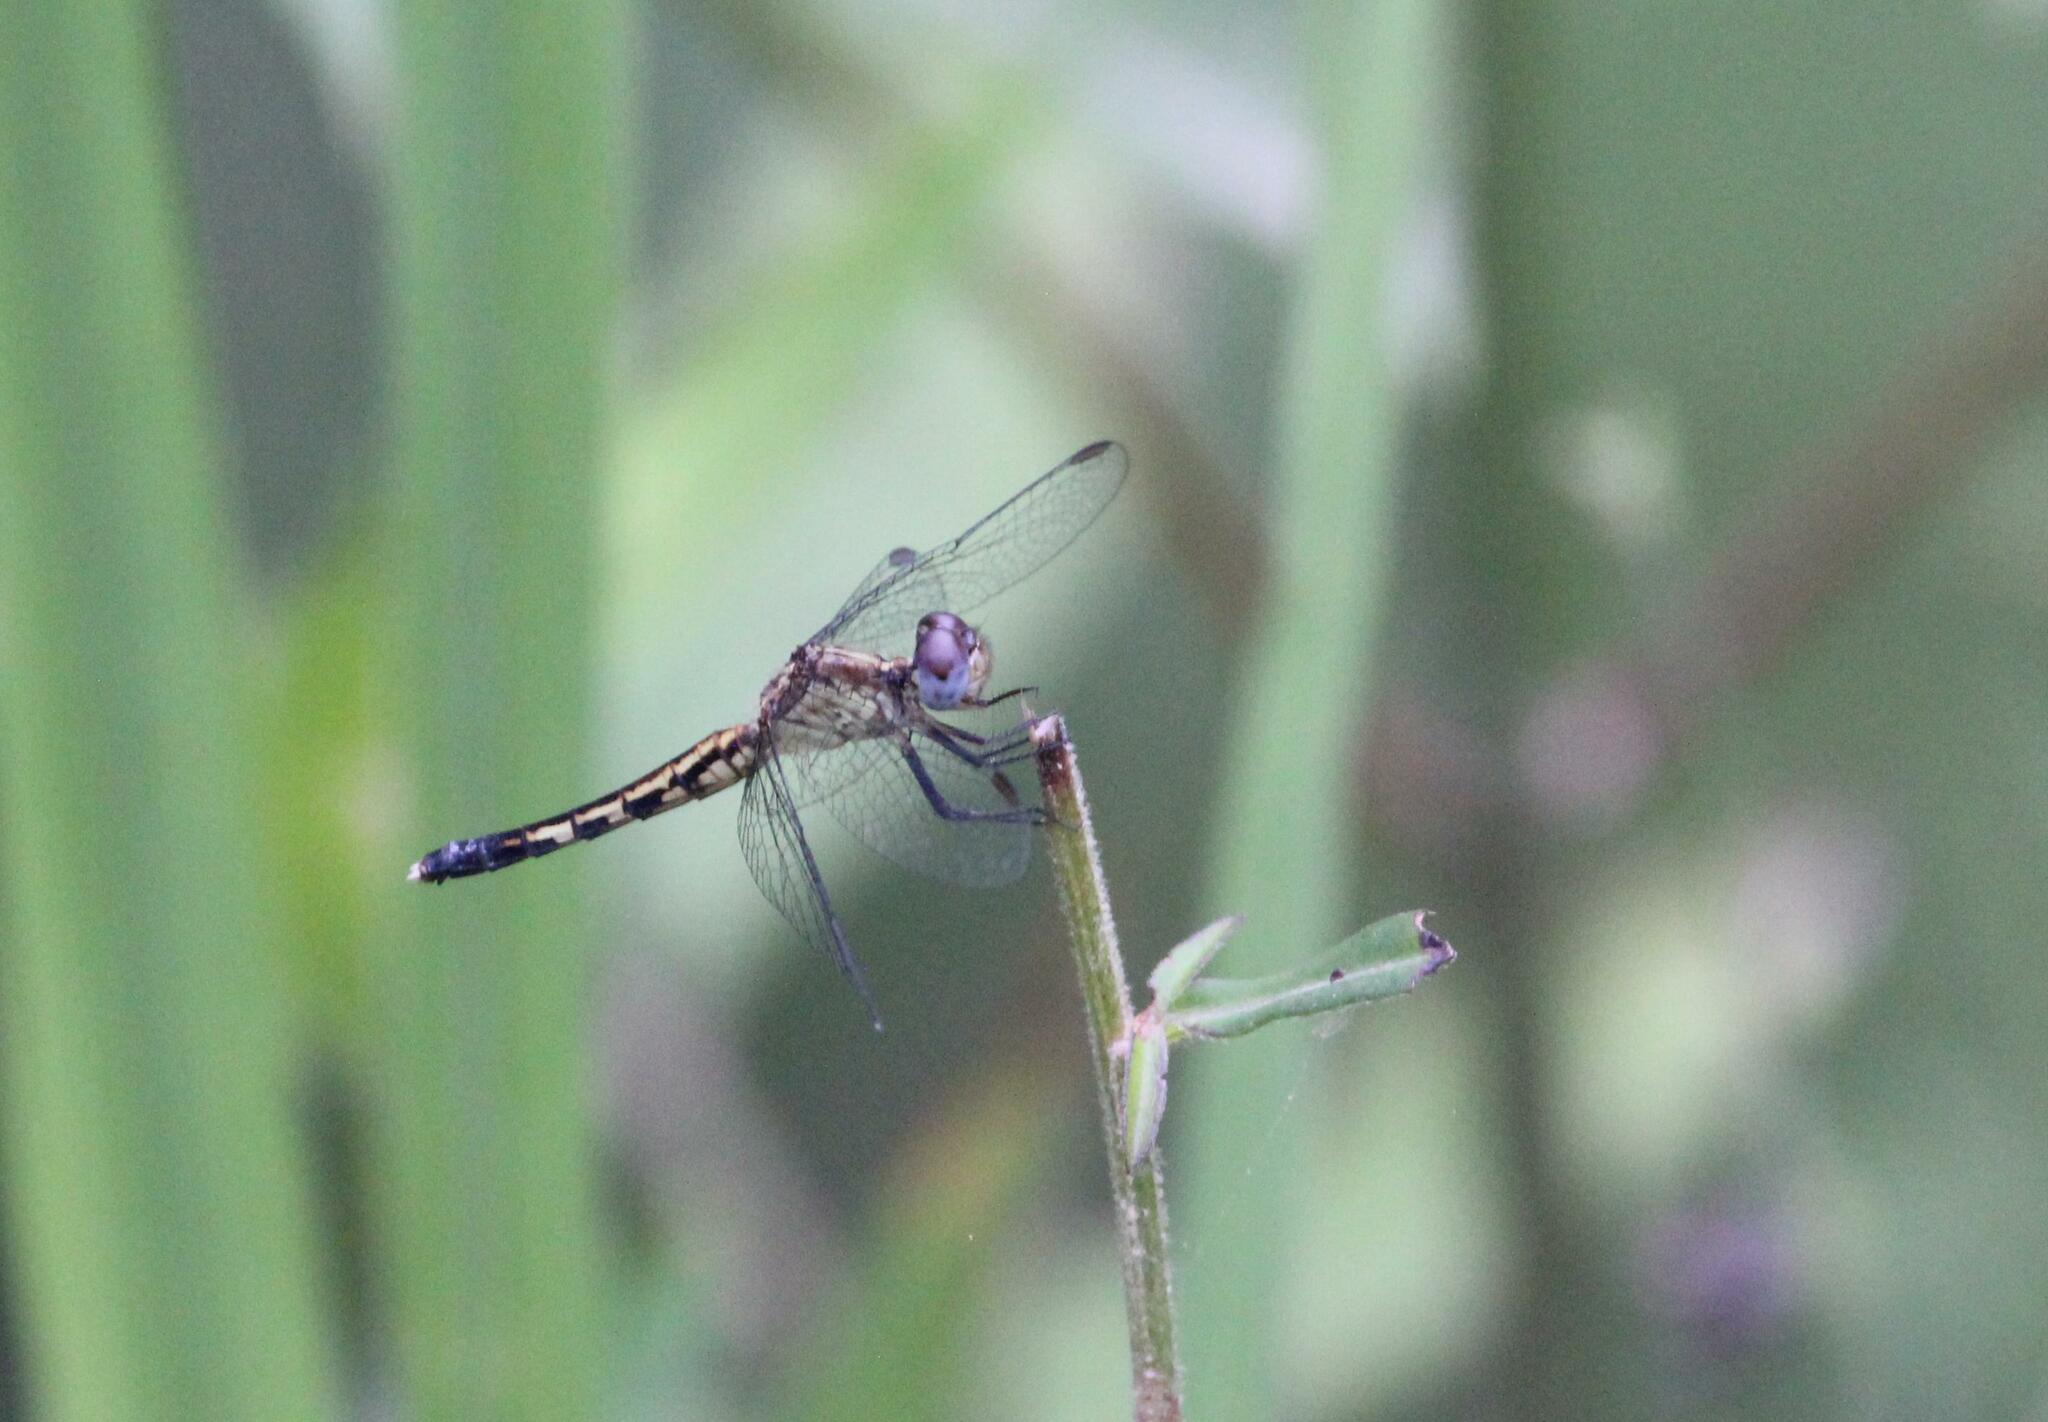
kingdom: Animalia
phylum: Arthropoda
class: Insecta
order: Odonata
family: Libellulidae
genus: Erythrodiplax
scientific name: Erythrodiplax minuscula
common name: Little blue dragonlet
